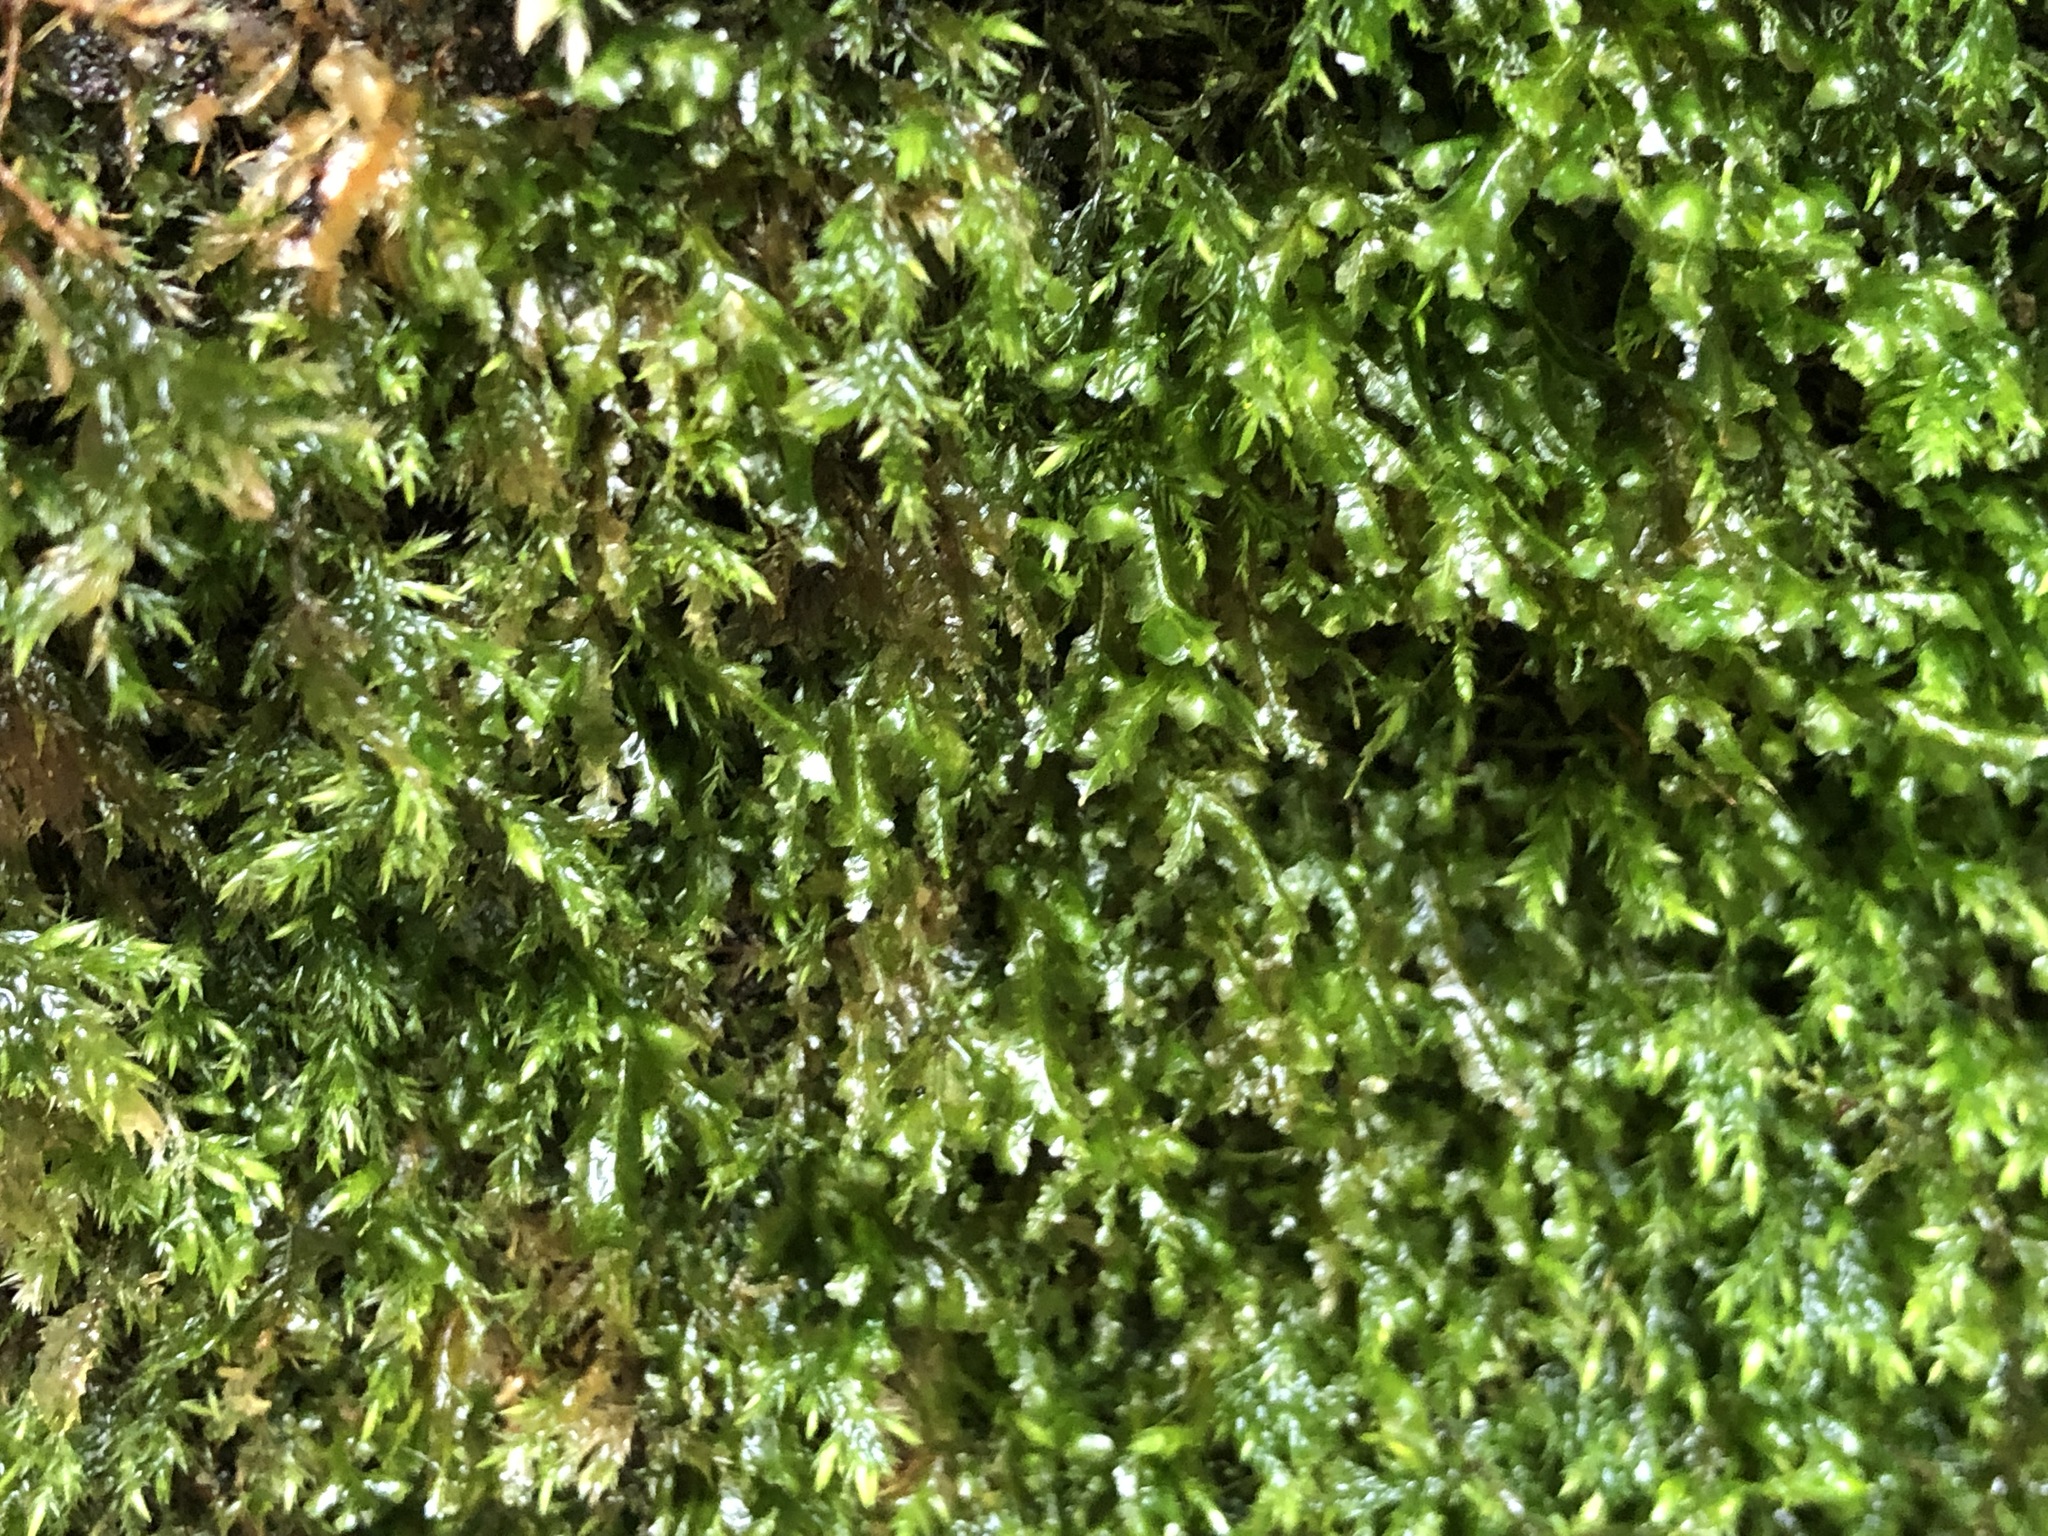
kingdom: Plantae
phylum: Bryophyta
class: Bryopsida
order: Hypnales
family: Neckeraceae
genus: Homalia
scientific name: Homalia trichomanoides
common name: Lime homalia moss
